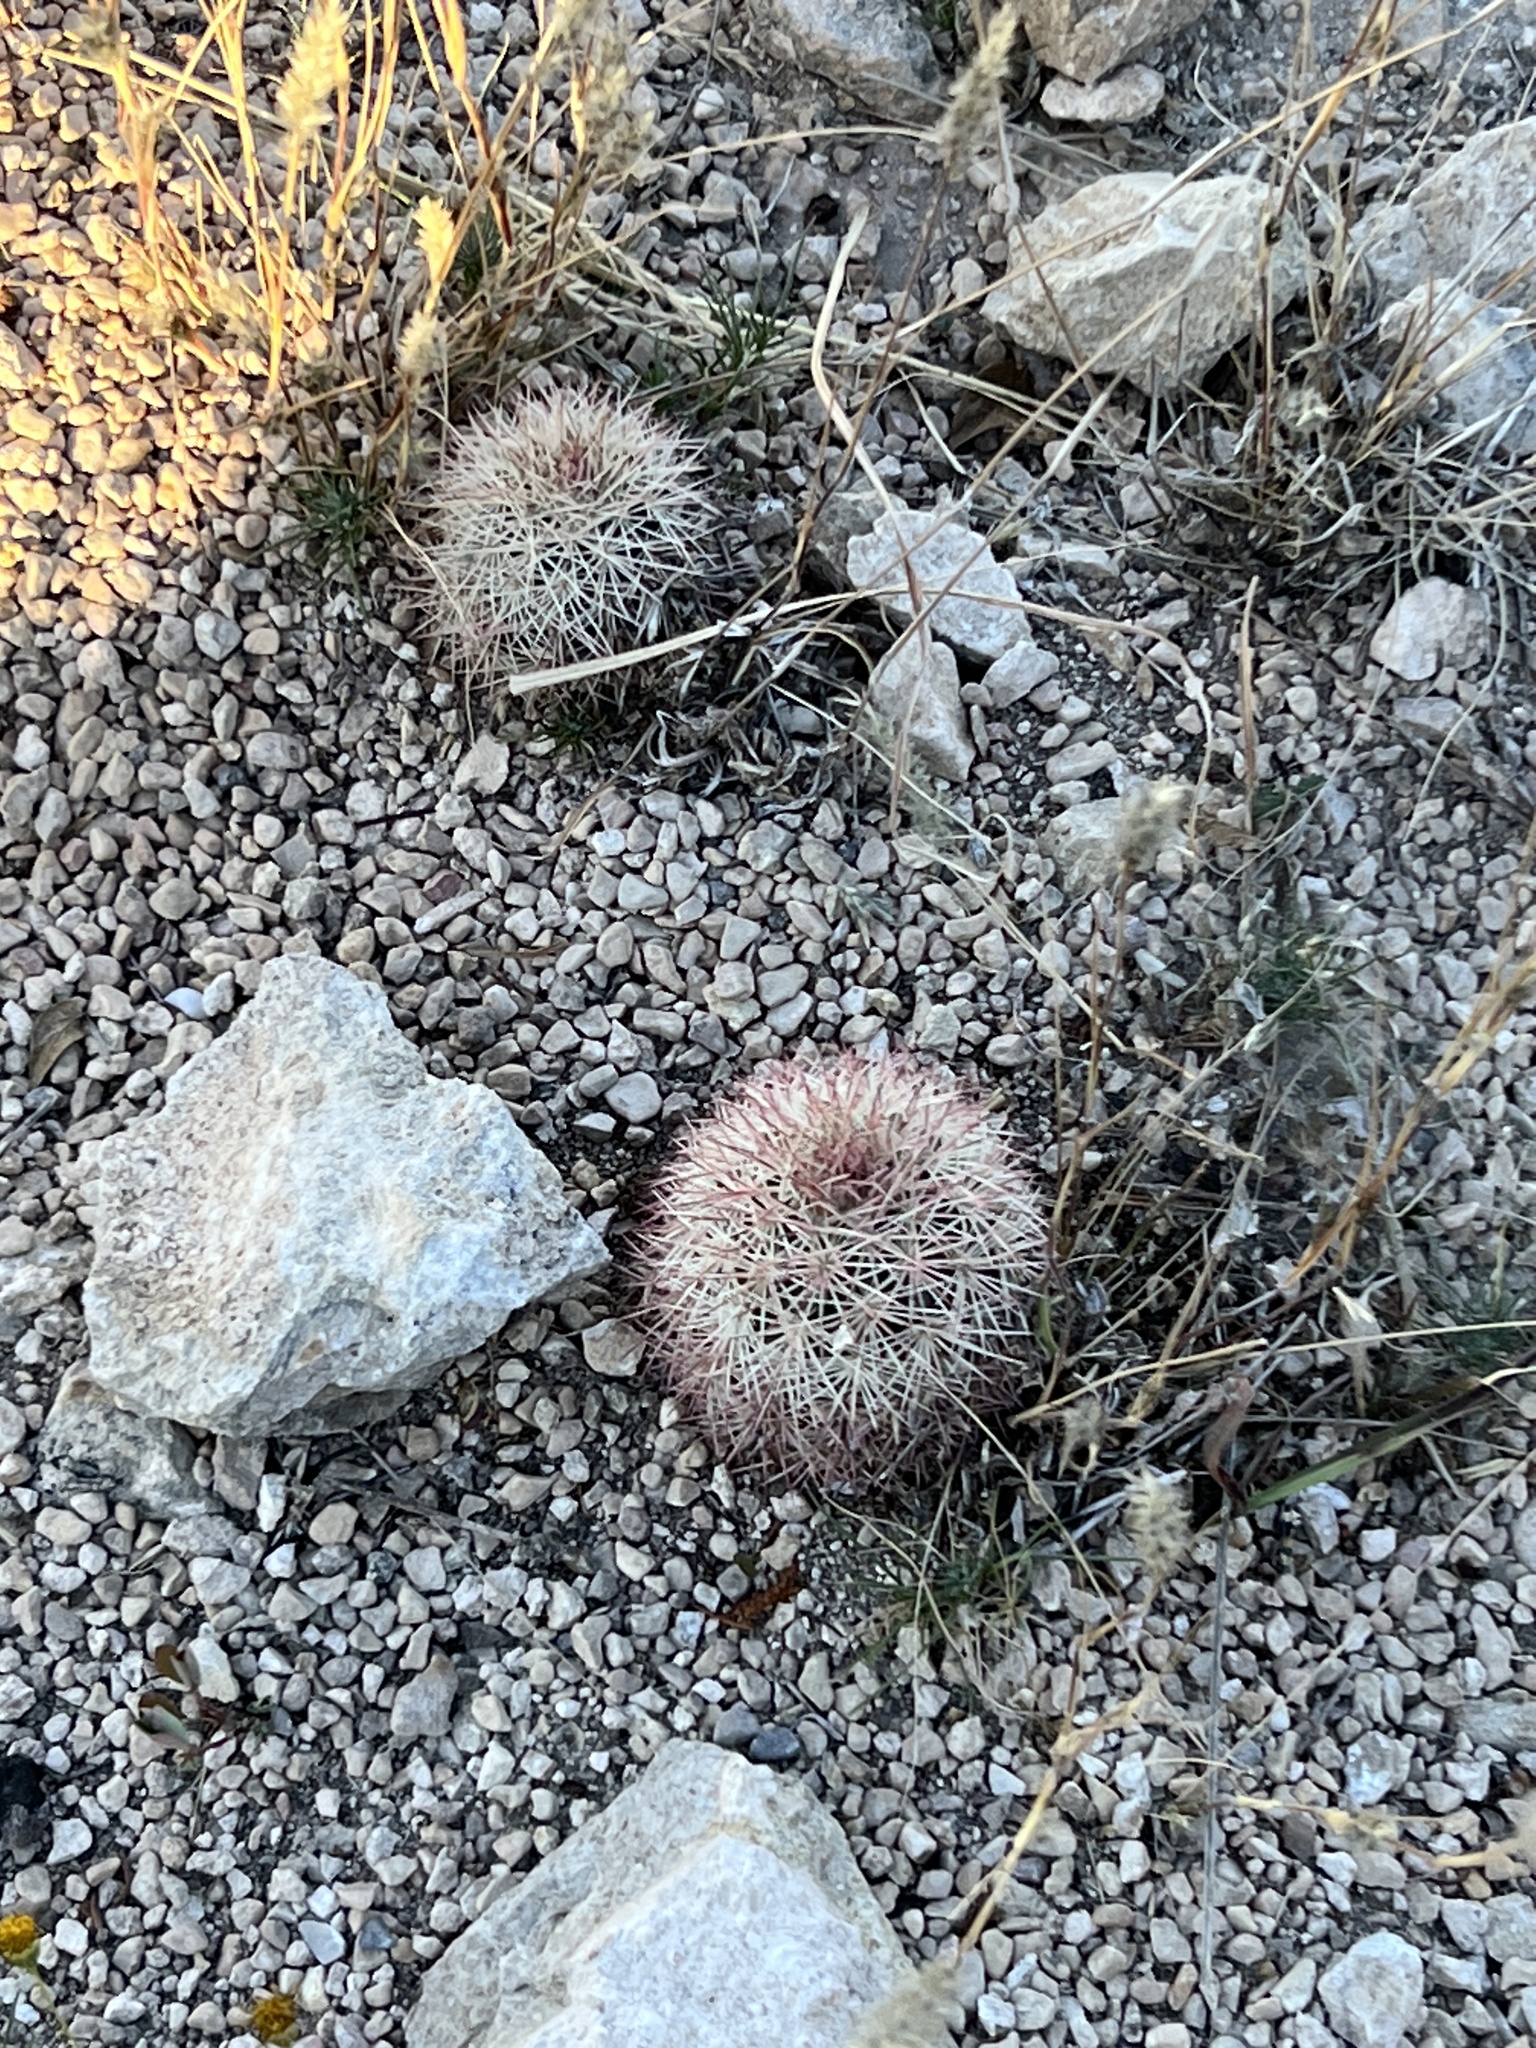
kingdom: Plantae
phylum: Tracheophyta
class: Magnoliopsida
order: Caryophyllales
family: Cactaceae
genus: Echinocereus
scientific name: Echinocereus dasyacanthus
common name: Spiny hedgehog cactus
